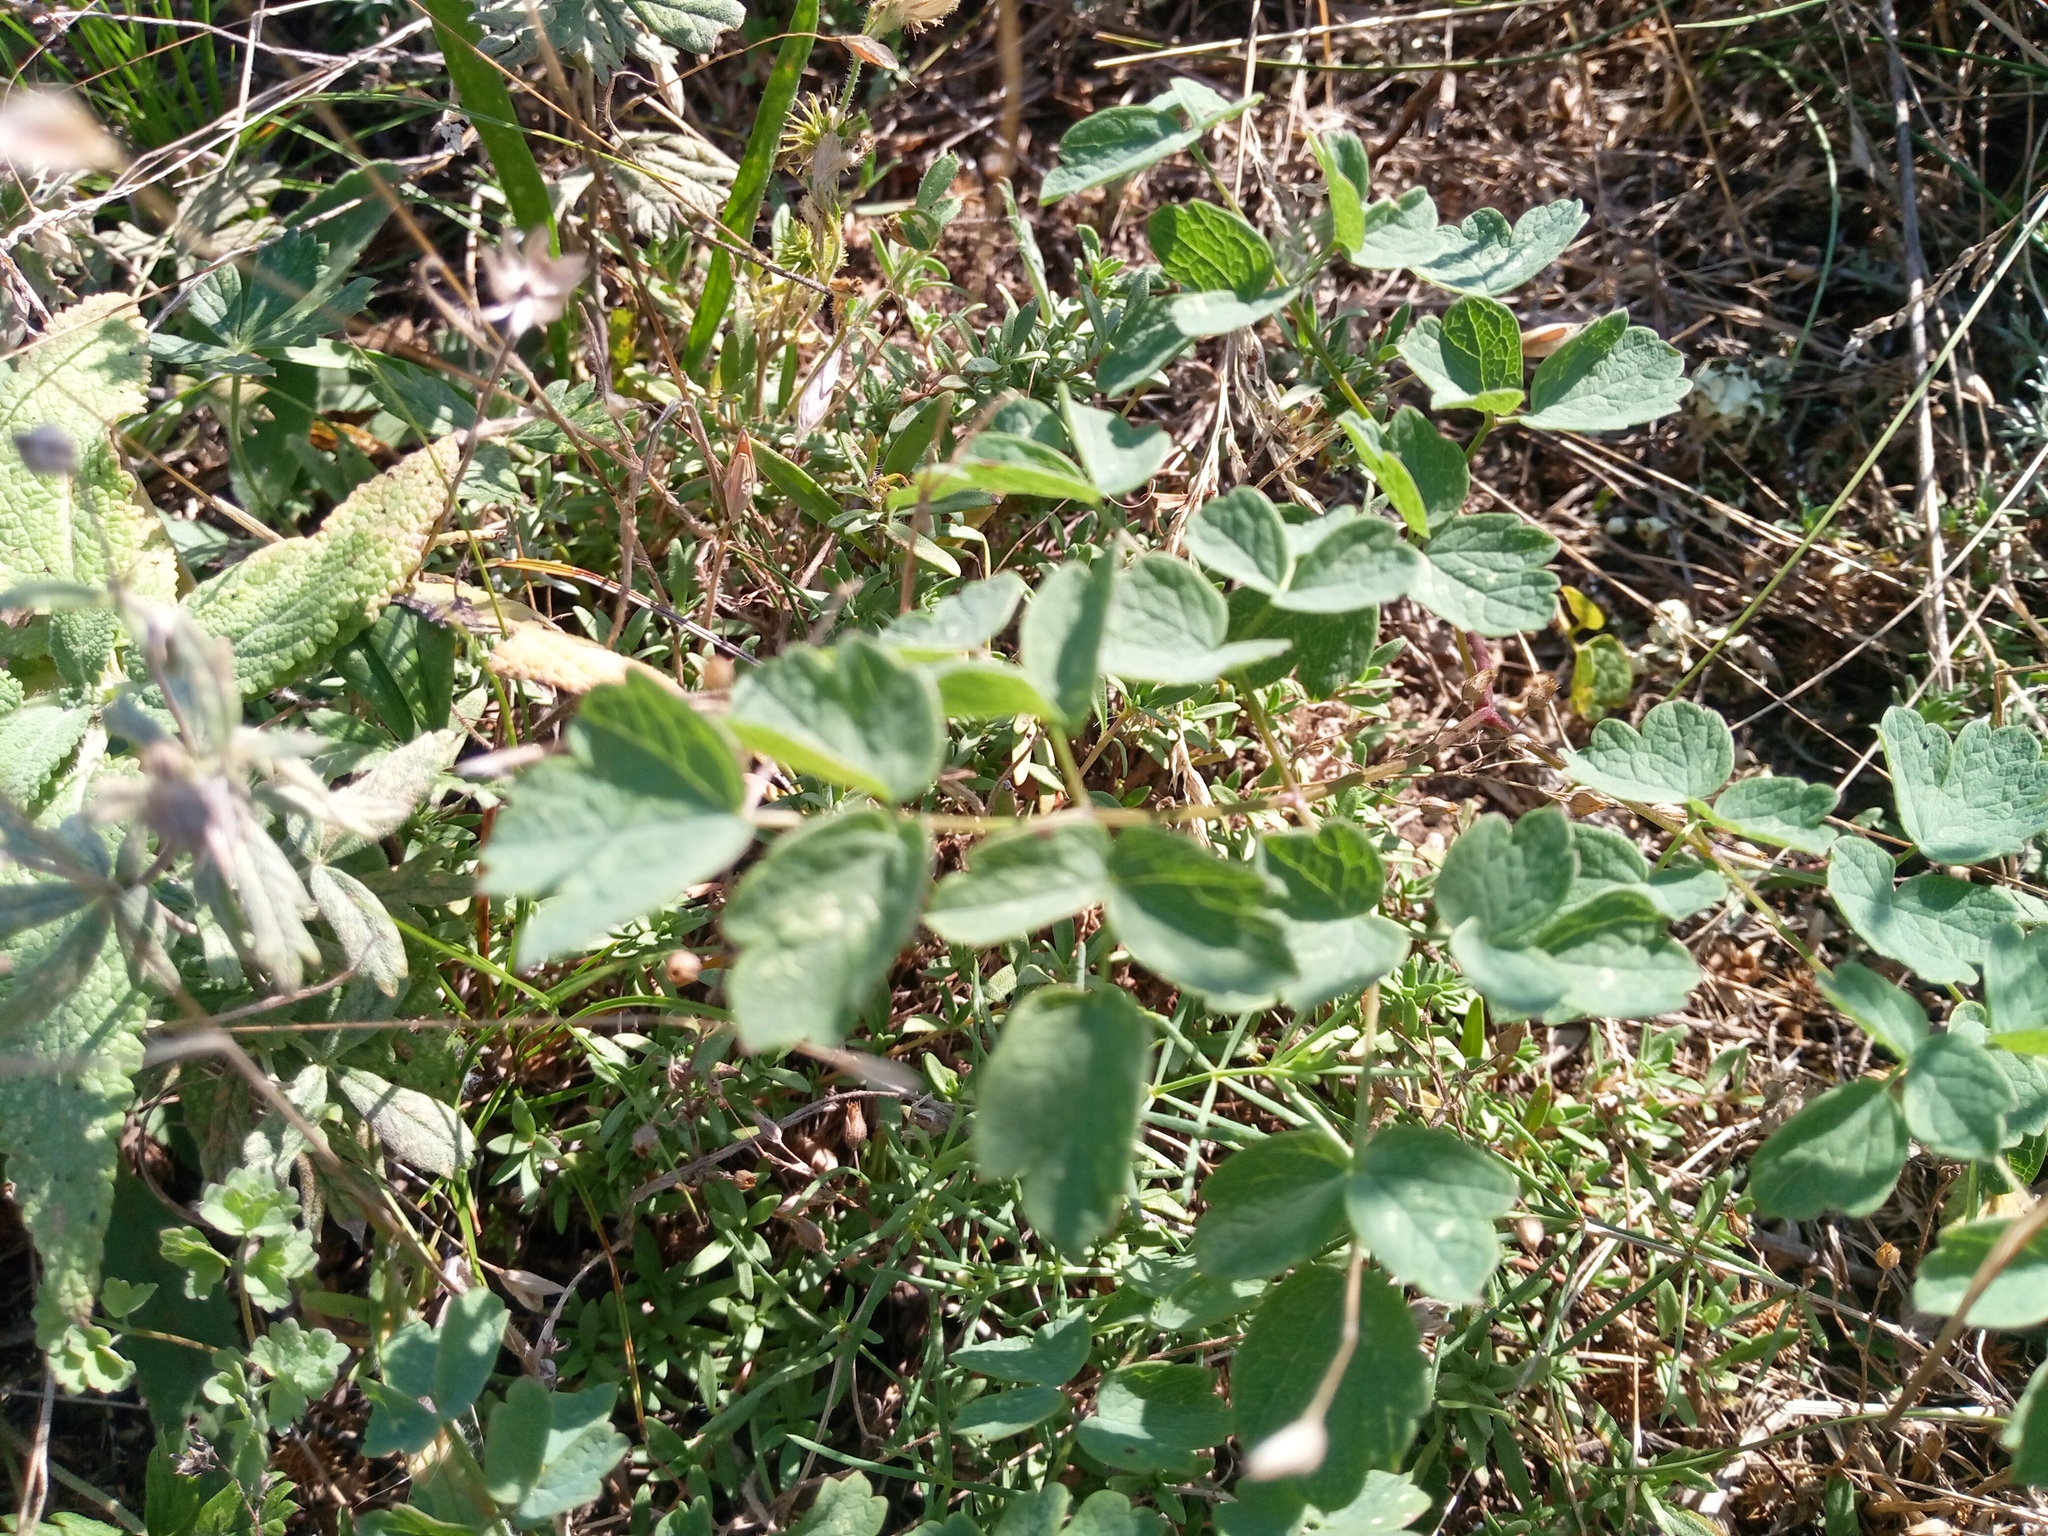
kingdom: Plantae
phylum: Tracheophyta
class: Magnoliopsida
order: Ranunculales
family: Ranunculaceae
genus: Thalictrum
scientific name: Thalictrum minus
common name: Lesser meadow-rue
